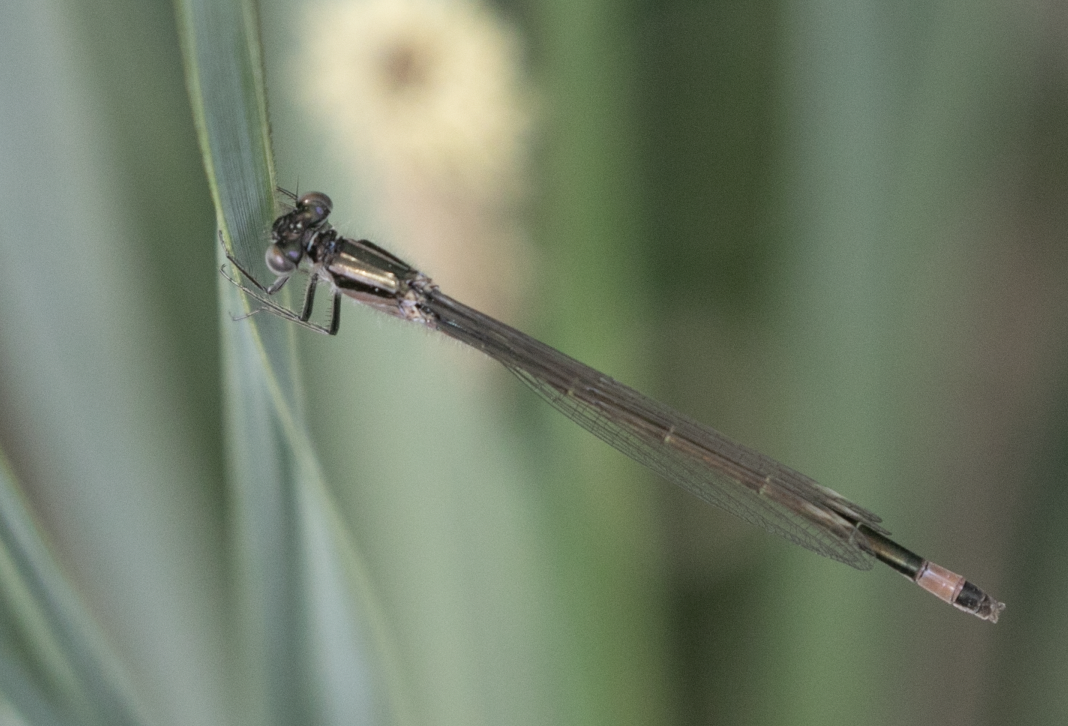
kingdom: Animalia
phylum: Arthropoda
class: Insecta
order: Odonata
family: Coenagrionidae
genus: Ischnura
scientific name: Ischnura elegans
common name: Blue-tailed damselfly
